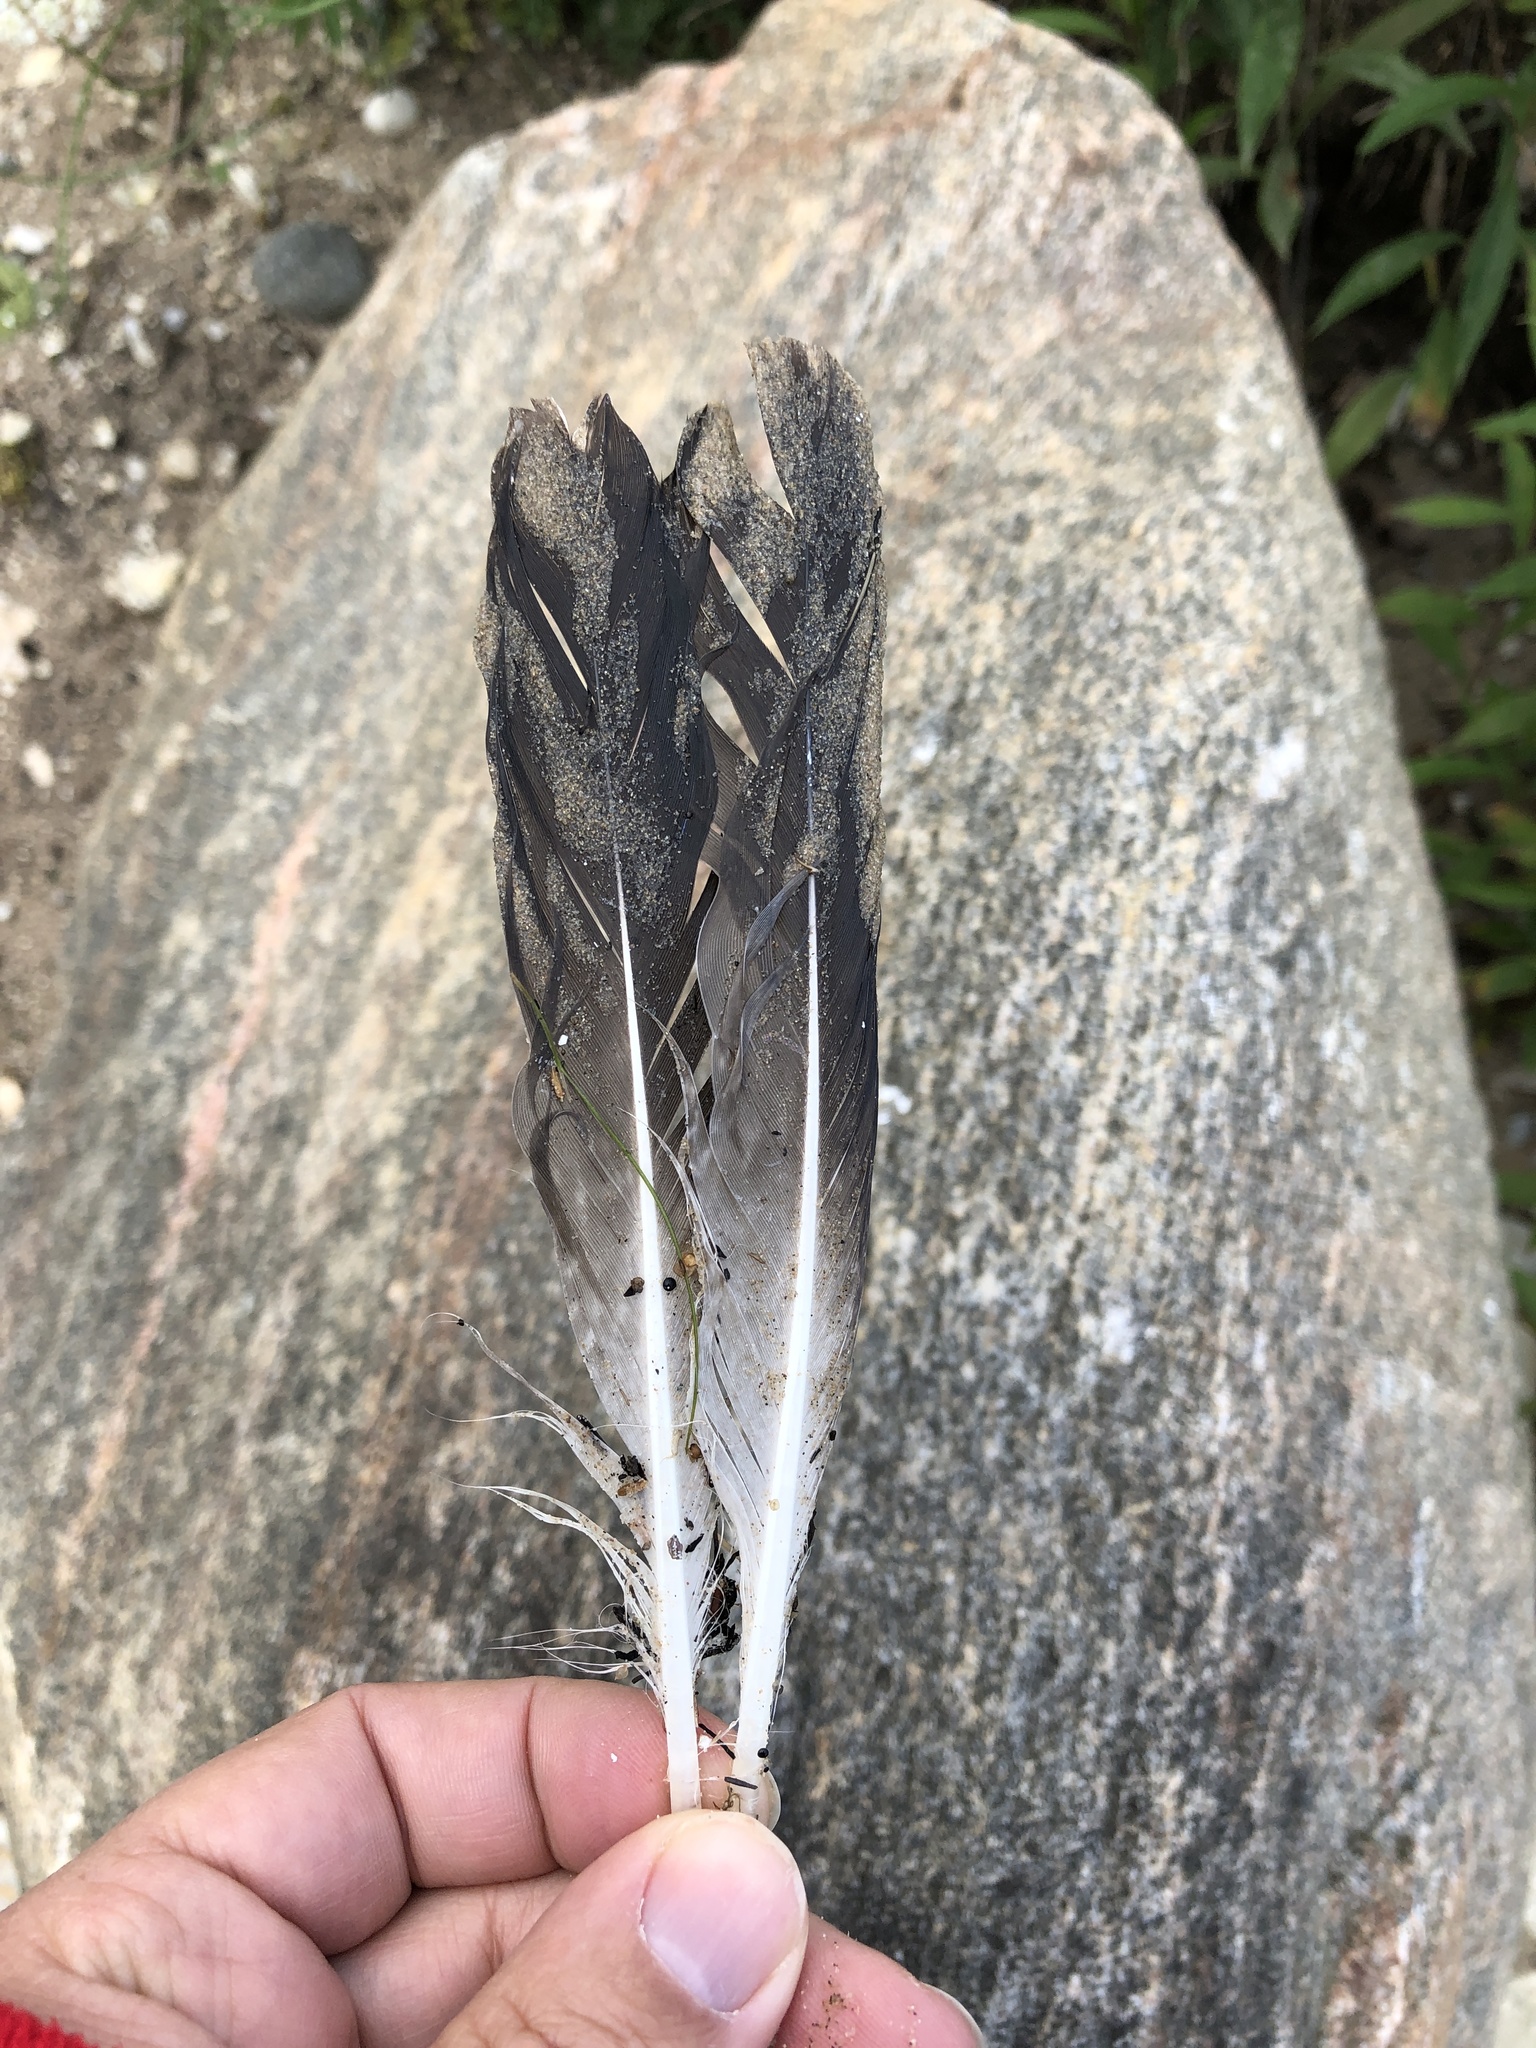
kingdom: Animalia
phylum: Chordata
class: Aves
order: Charadriiformes
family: Laridae
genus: Larus
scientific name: Larus argentatus
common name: Herring gull
